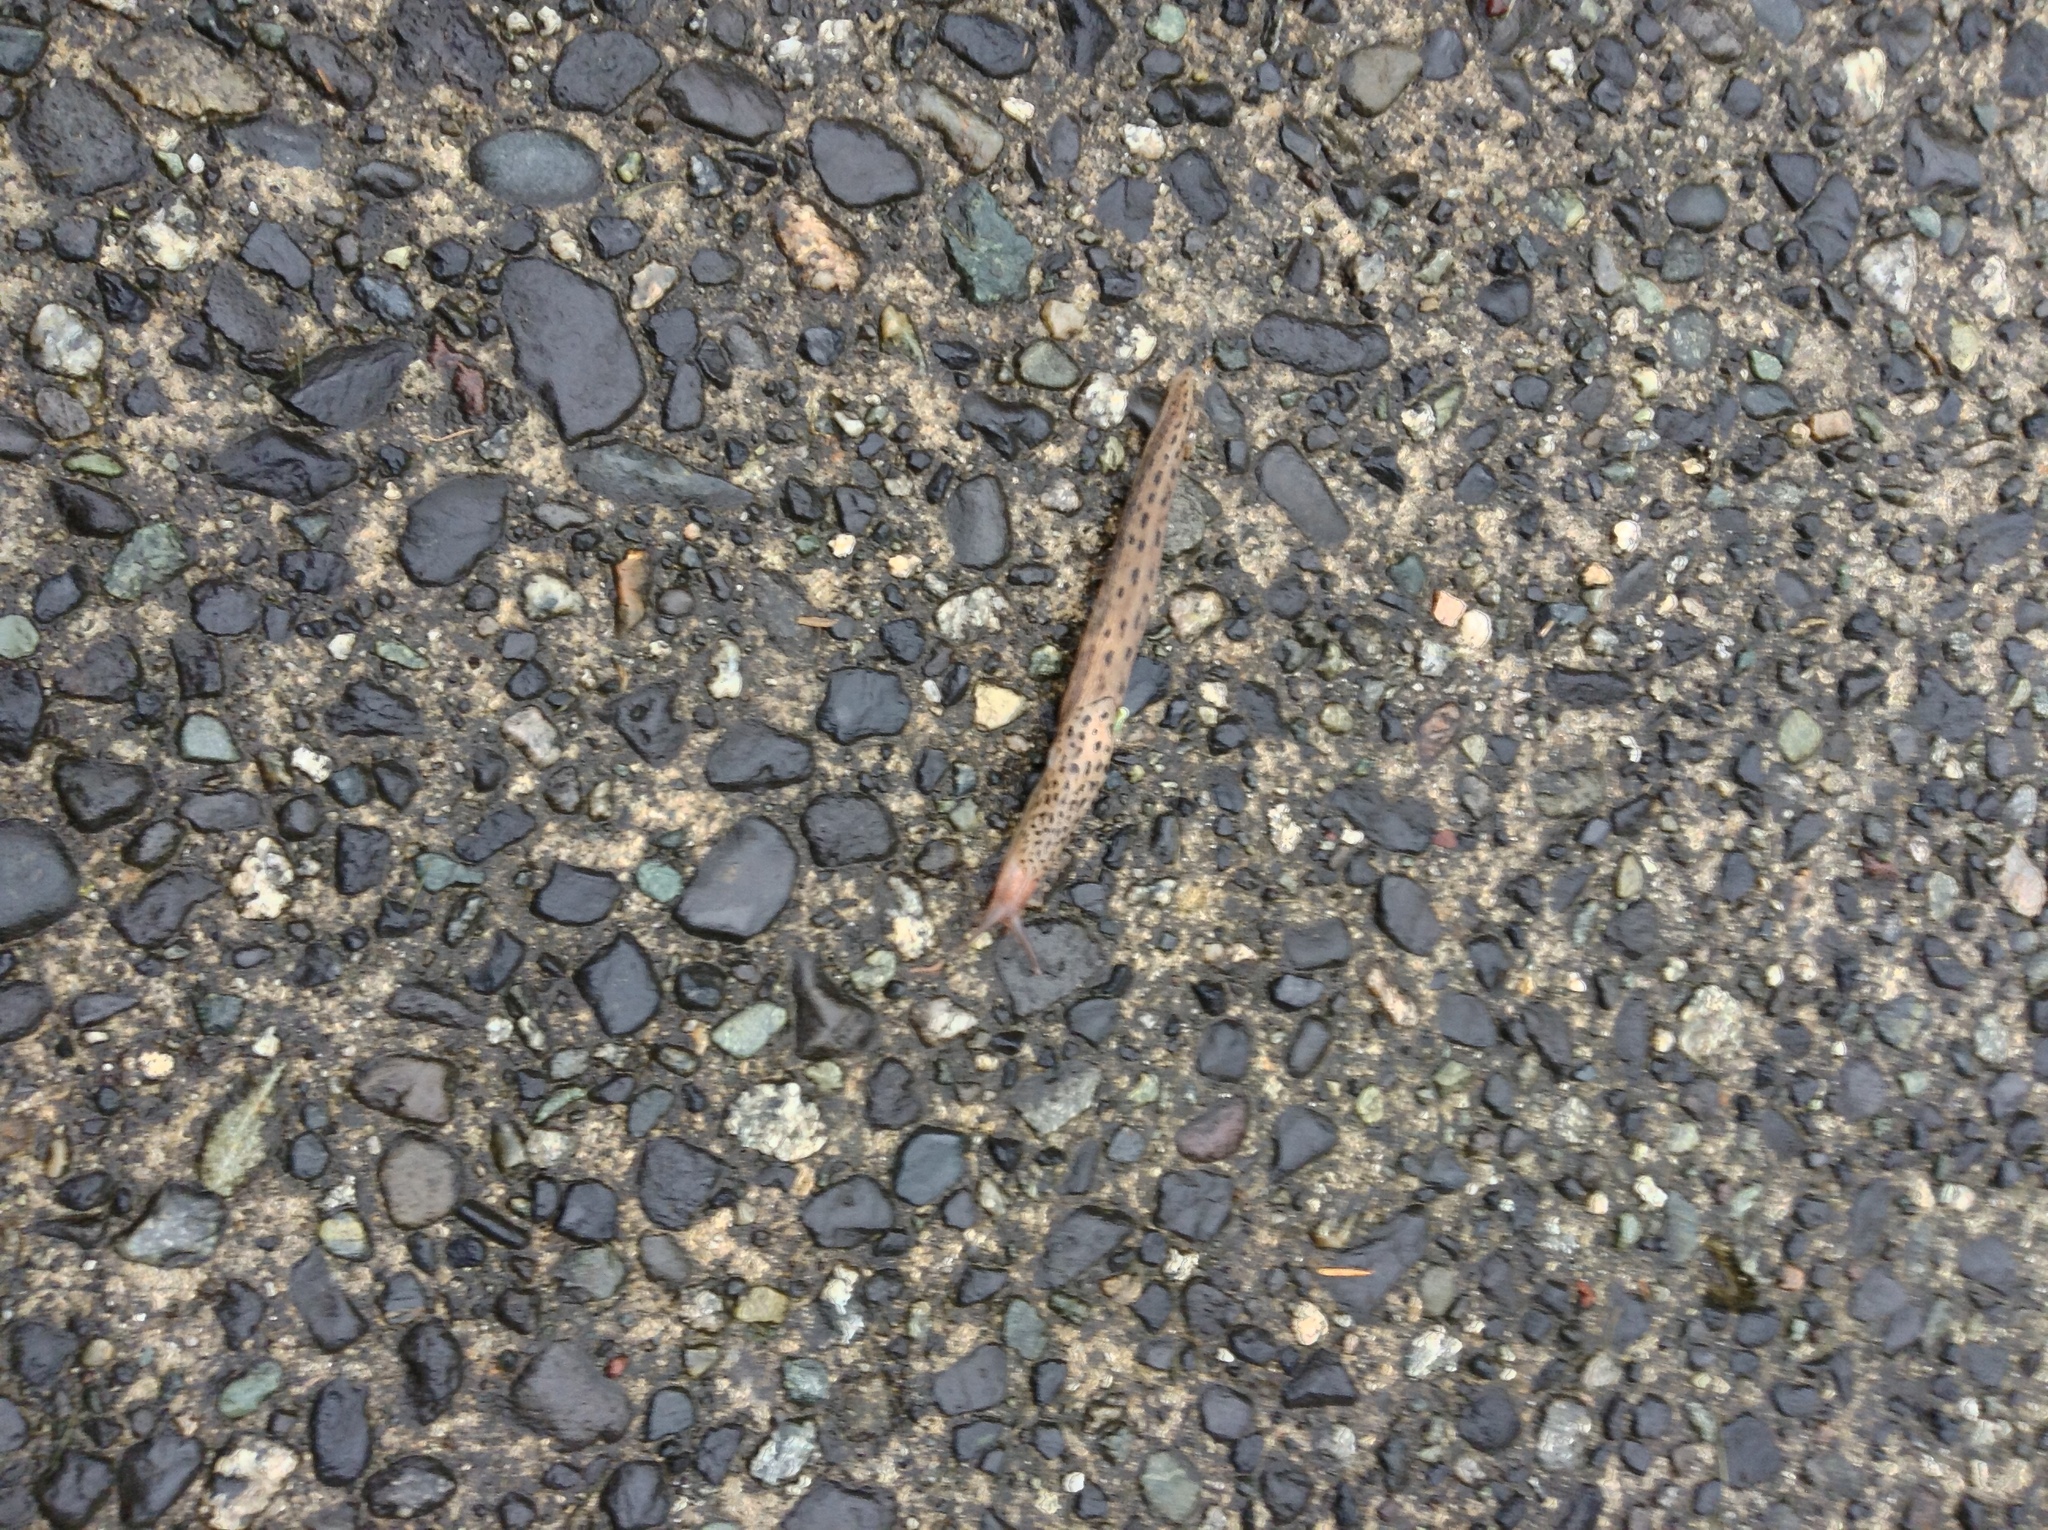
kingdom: Animalia
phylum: Mollusca
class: Gastropoda
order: Stylommatophora
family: Limacidae
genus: Limax
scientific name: Limax maximus
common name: Great grey slug
